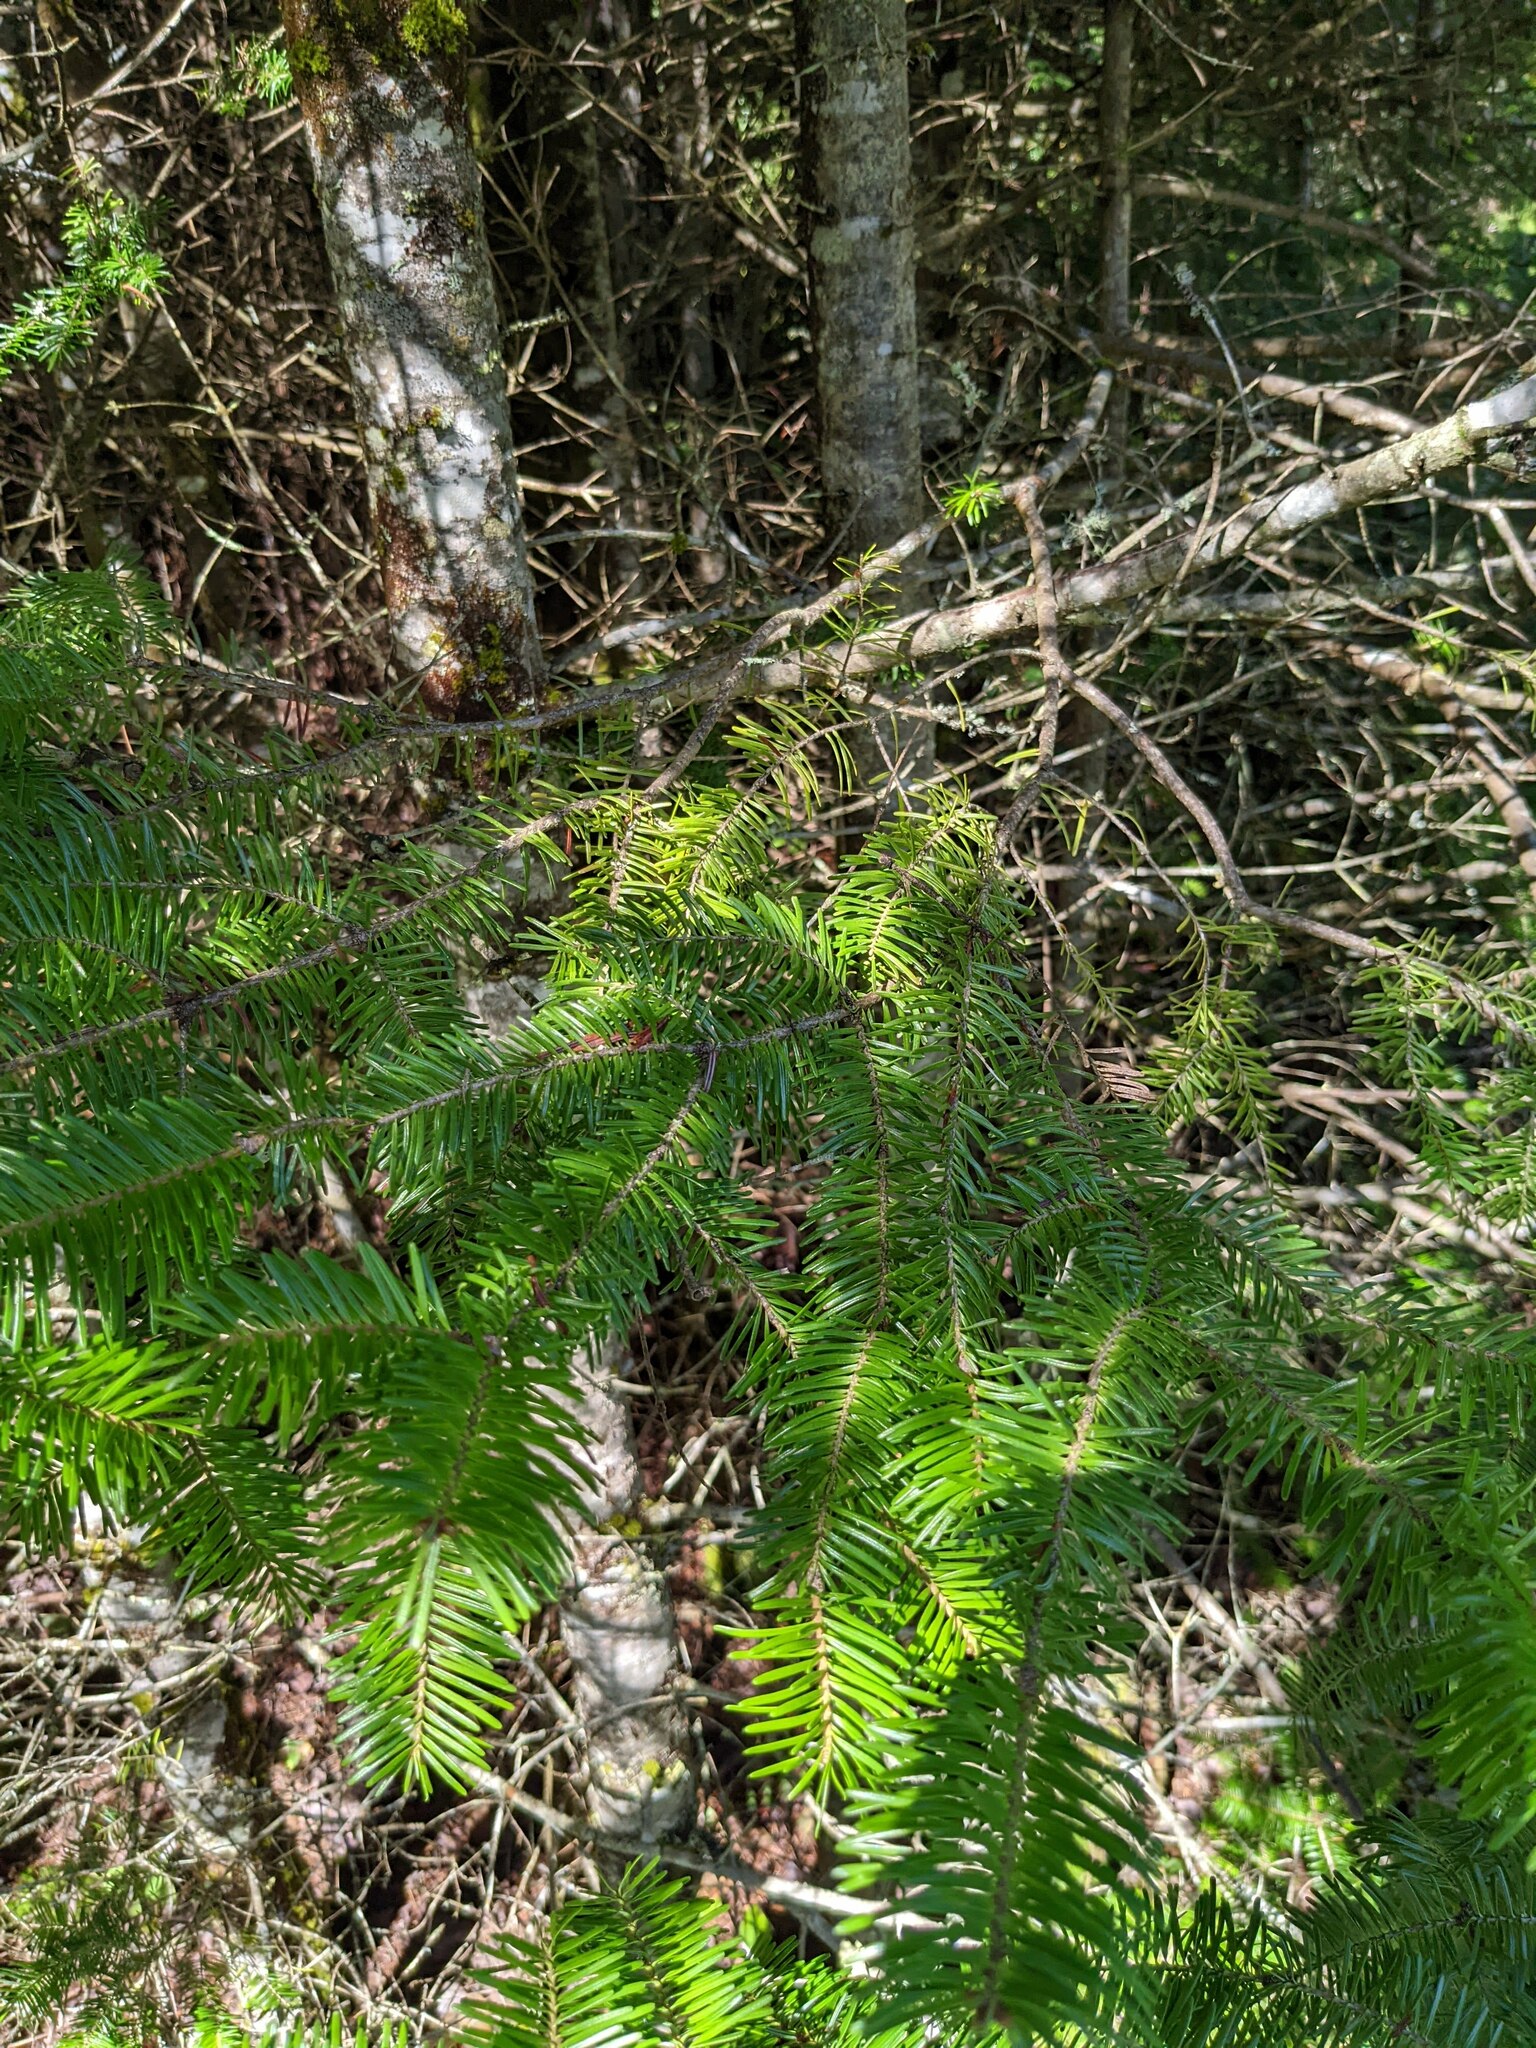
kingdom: Plantae
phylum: Tracheophyta
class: Pinopsida
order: Pinales
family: Pinaceae
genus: Abies
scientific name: Abies balsamea
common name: Balsam fir
